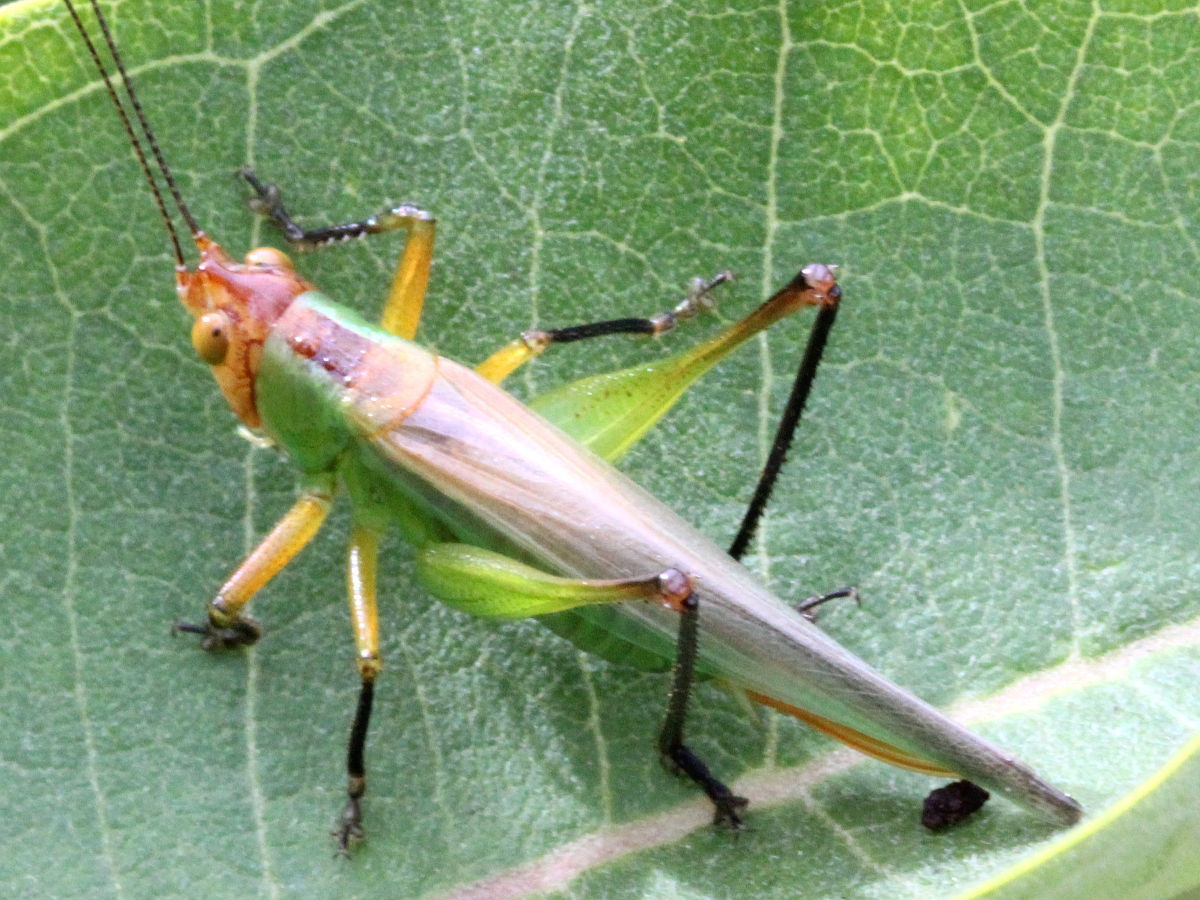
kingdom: Animalia
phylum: Arthropoda
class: Insecta
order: Orthoptera
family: Tettigoniidae
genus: Orchelimum
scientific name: Orchelimum nigripes
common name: Black-legged meadow katydid
